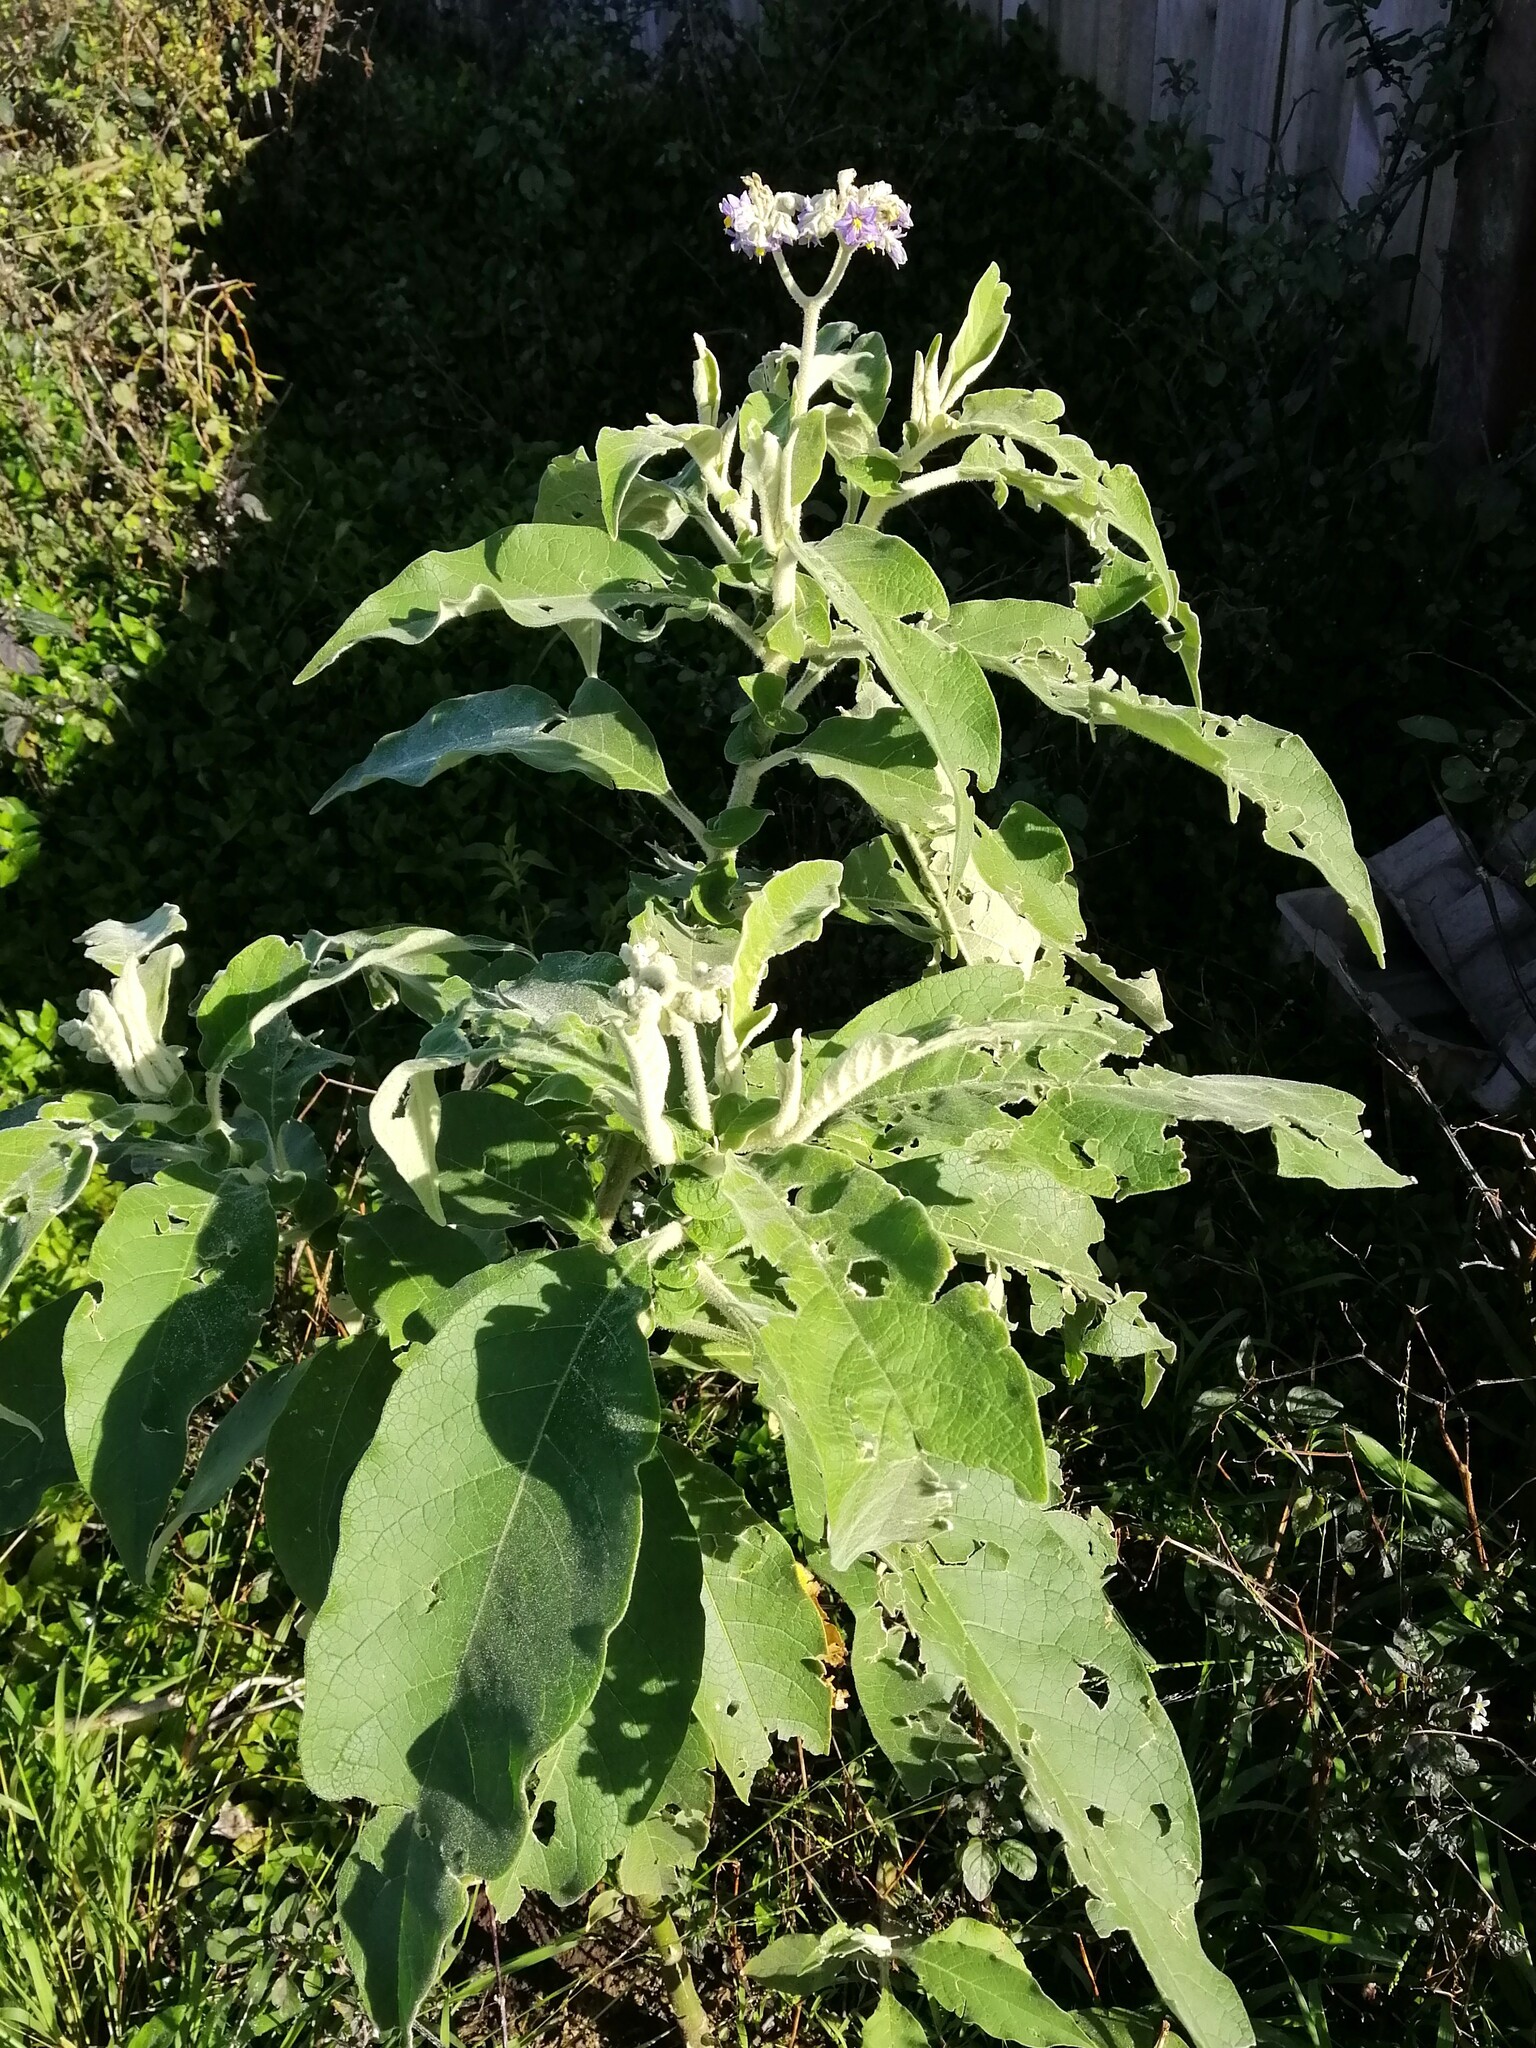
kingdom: Plantae
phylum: Tracheophyta
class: Magnoliopsida
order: Solanales
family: Solanaceae
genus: Solanum
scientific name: Solanum mauritianum
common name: Earleaf nightshade
